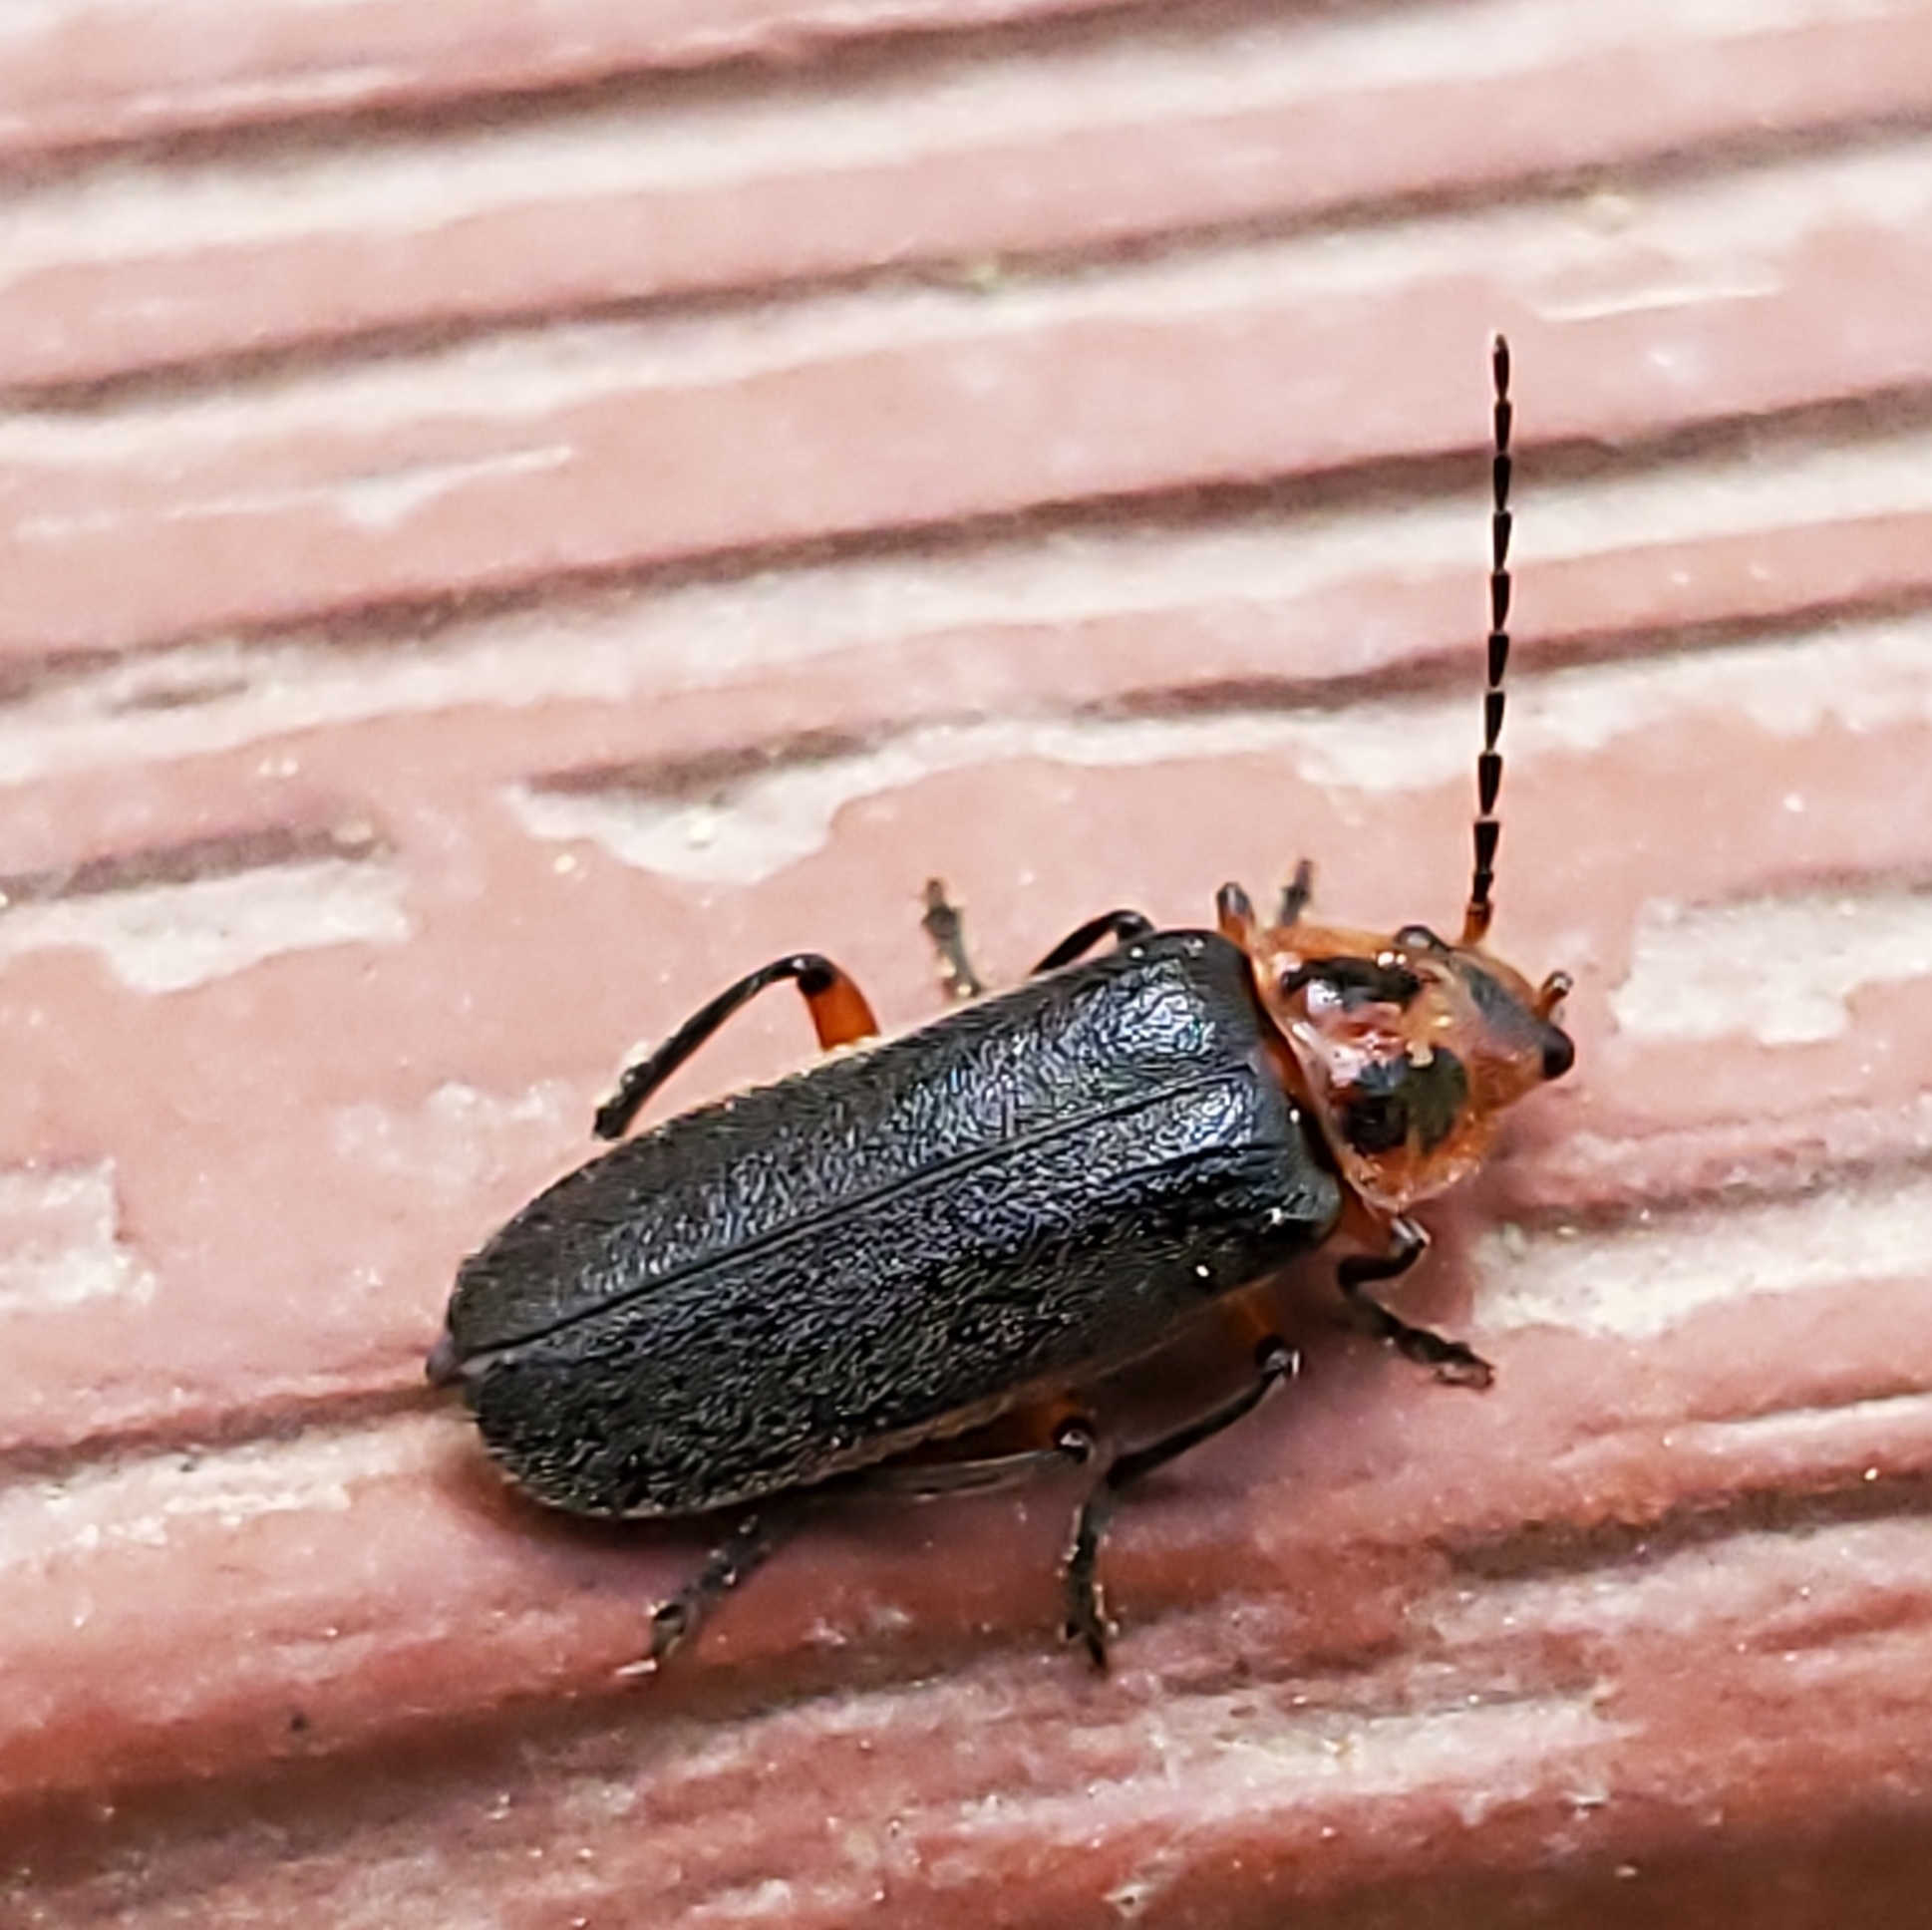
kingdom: Animalia
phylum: Arthropoda
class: Insecta
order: Coleoptera
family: Cantharidae
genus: Atalantycha
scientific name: Atalantycha bilineata
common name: Two-lined leatherwing
